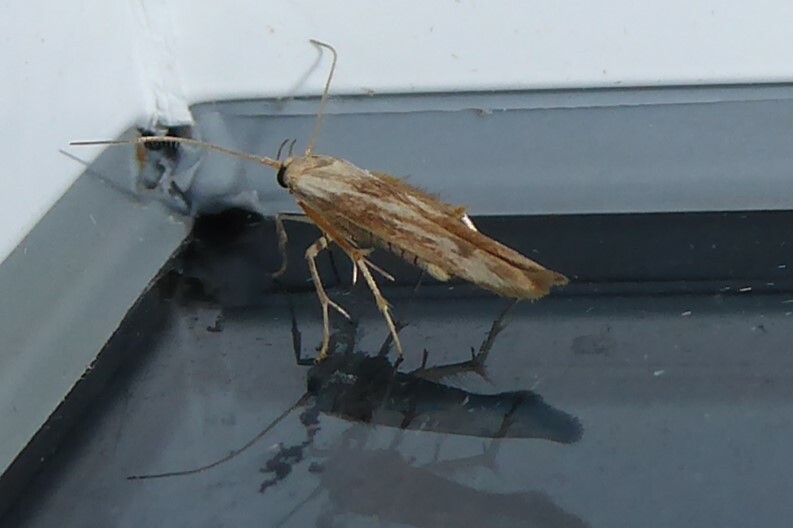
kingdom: Animalia
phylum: Arthropoda
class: Insecta
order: Lepidoptera
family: Stathmopodidae
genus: Stathmopoda
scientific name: Stathmopoda aposema
